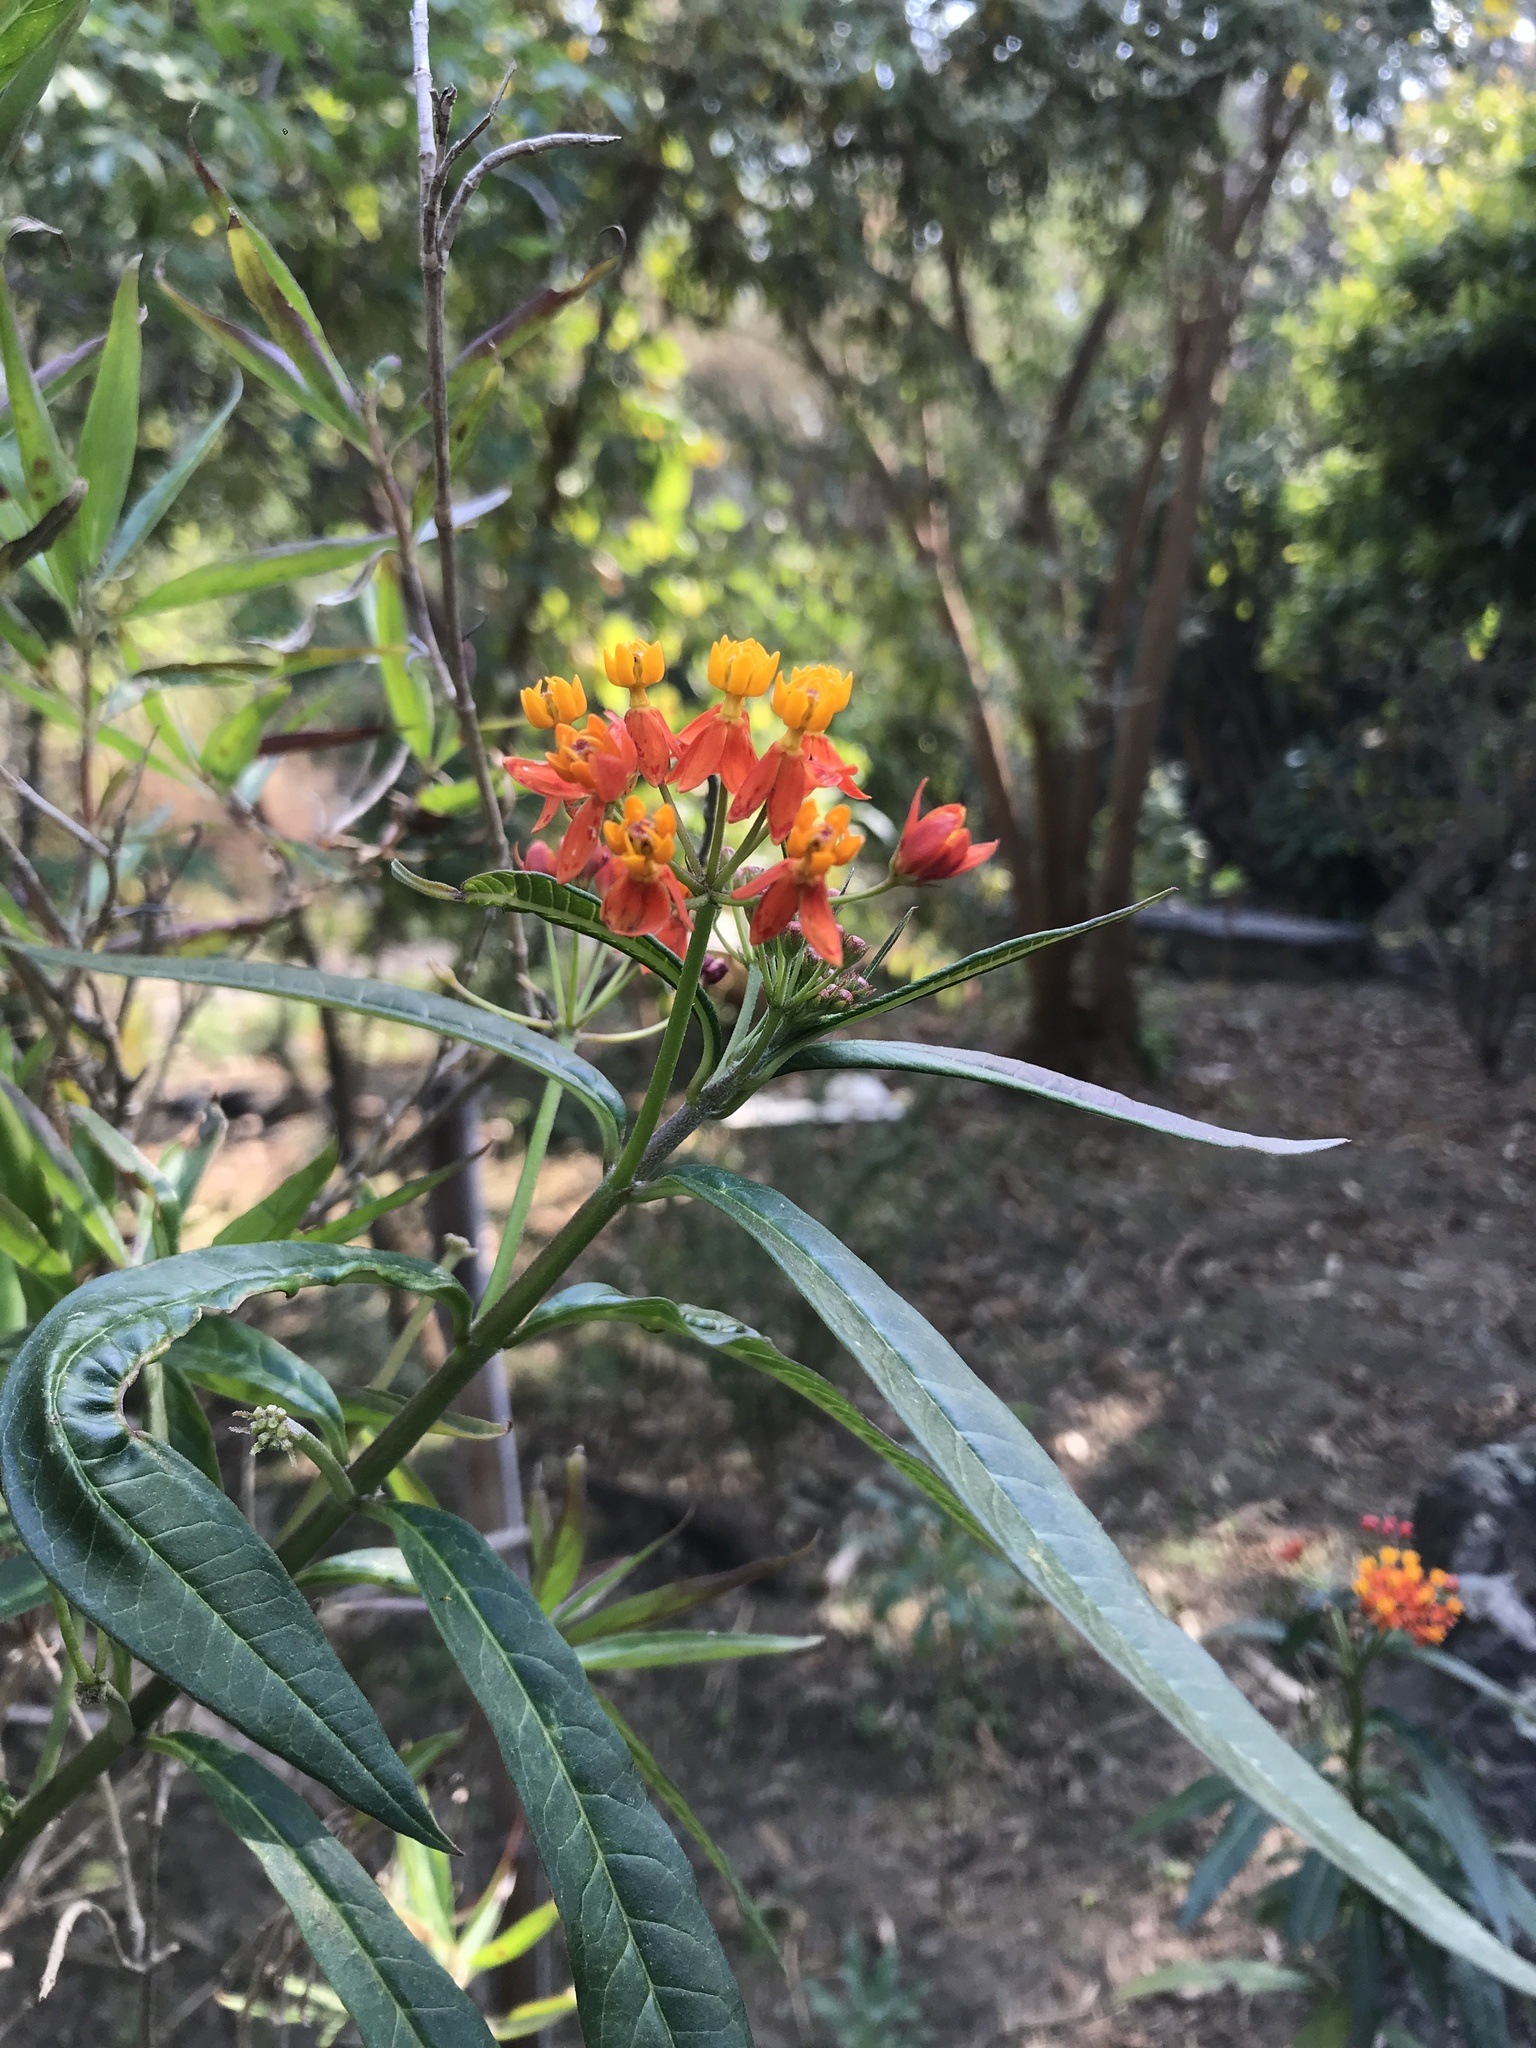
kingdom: Plantae
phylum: Tracheophyta
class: Magnoliopsida
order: Gentianales
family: Apocynaceae
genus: Asclepias
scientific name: Asclepias curassavica
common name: Bloodflower
